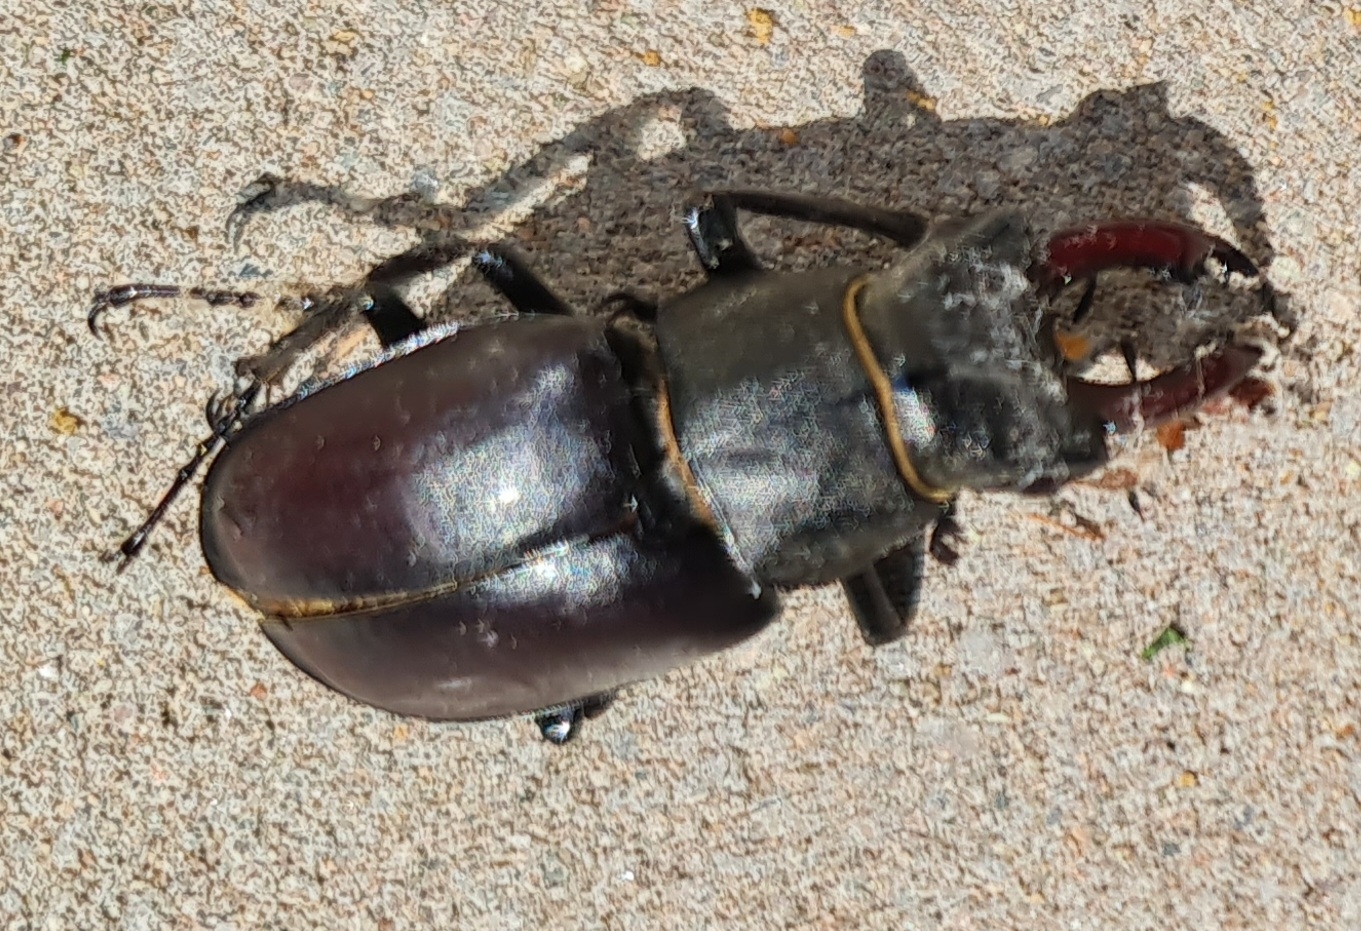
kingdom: Animalia
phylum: Arthropoda
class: Insecta
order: Coleoptera
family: Lucanidae
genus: Lucanus
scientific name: Lucanus cervus
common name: Stag beetle
